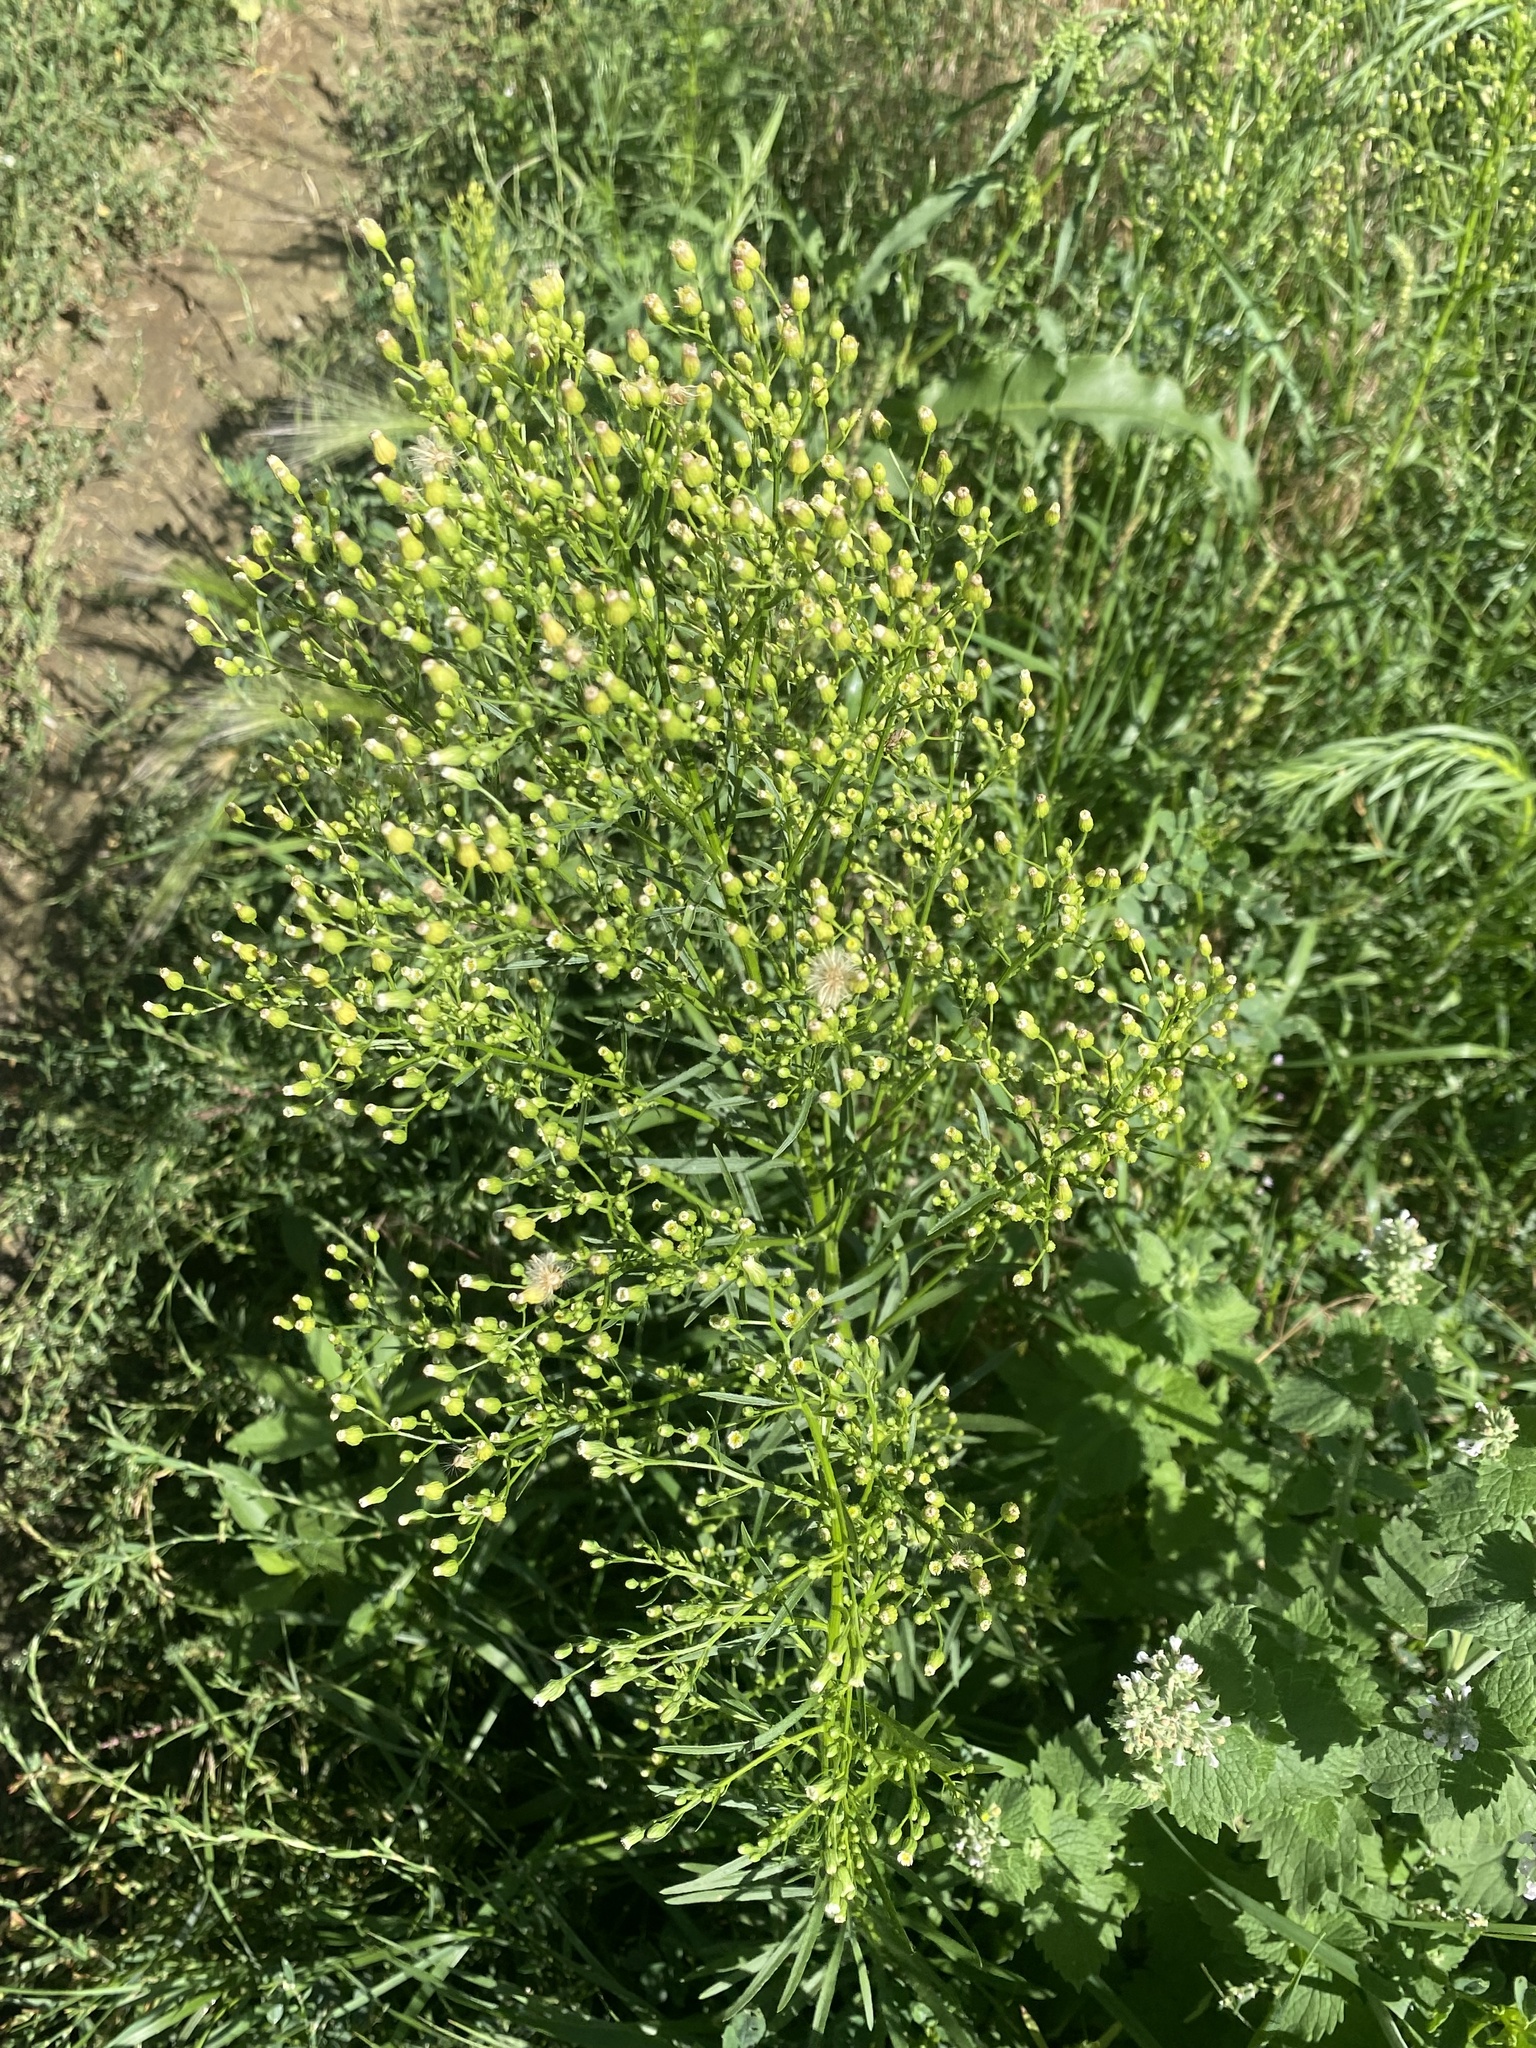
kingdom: Plantae
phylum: Tracheophyta
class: Magnoliopsida
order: Asterales
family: Asteraceae
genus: Erigeron
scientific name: Erigeron canadensis
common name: Canadian fleabane
